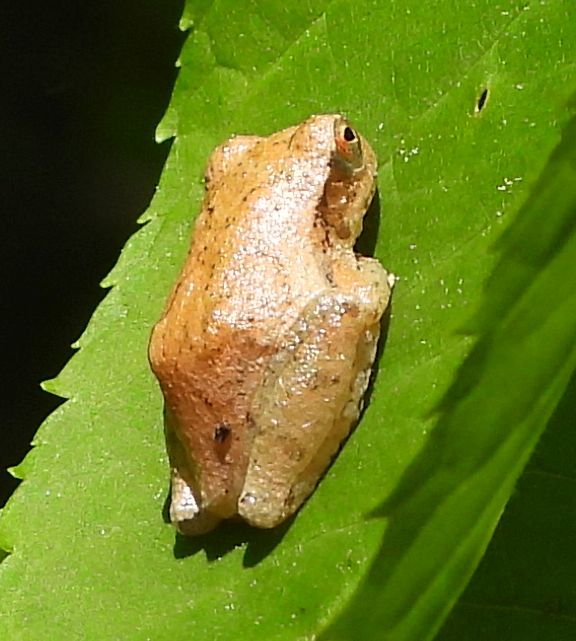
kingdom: Animalia
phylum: Chordata
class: Amphibia
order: Anura
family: Hylidae
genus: Pseudacris
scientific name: Pseudacris crucifer
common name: Spring peeper
